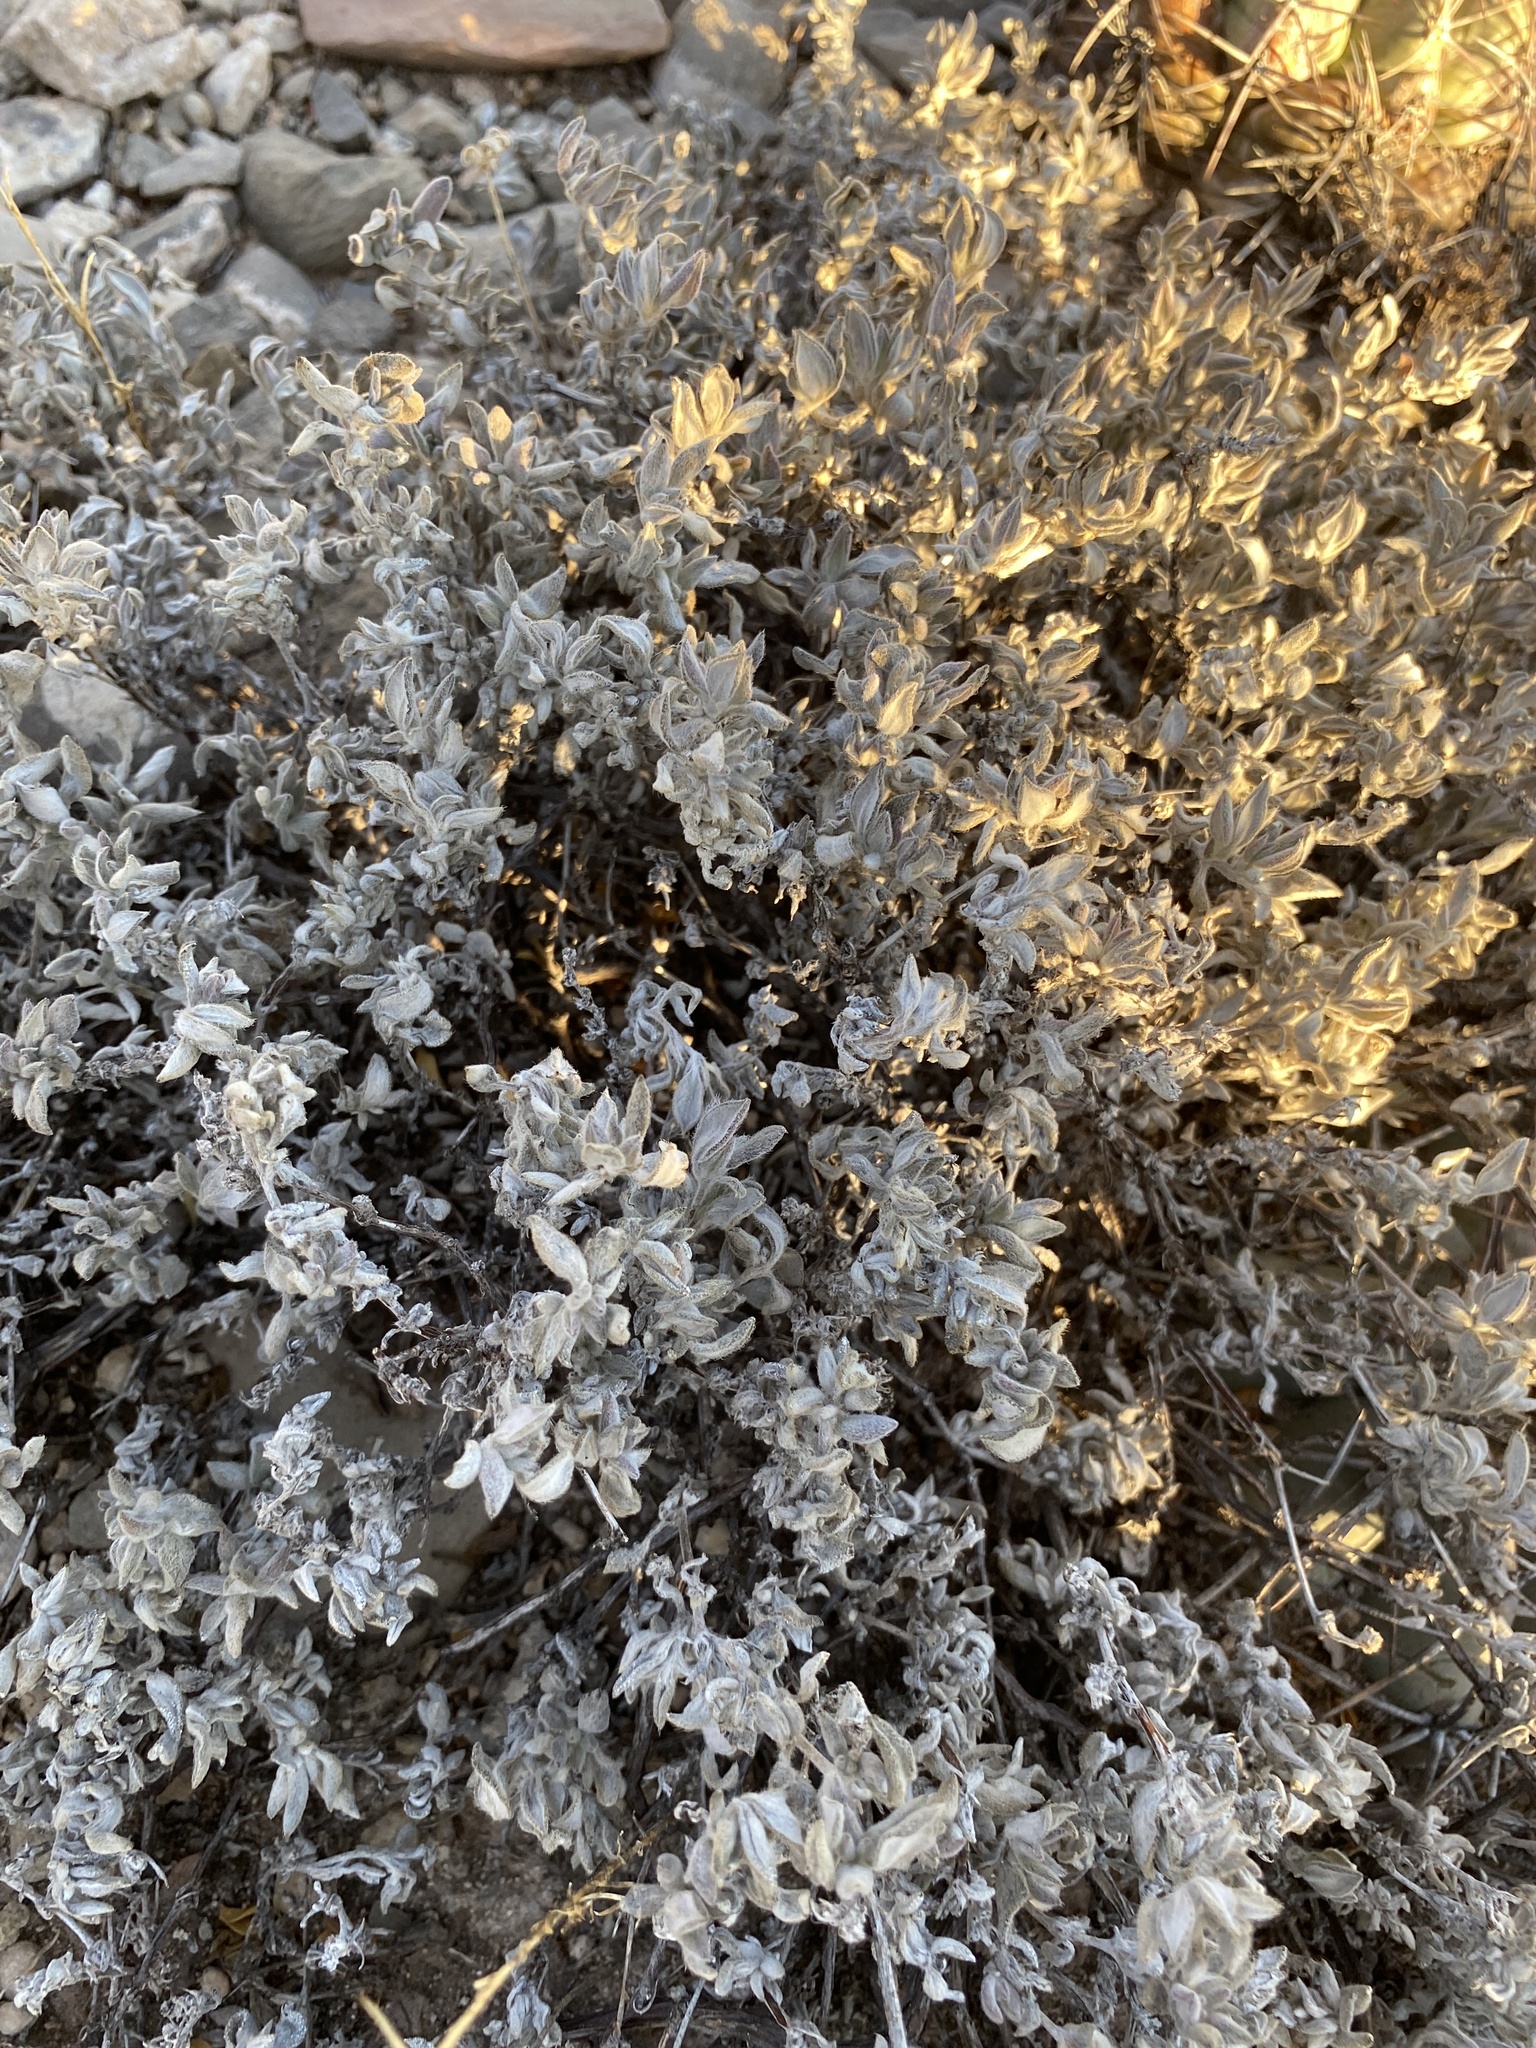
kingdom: Plantae
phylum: Tracheophyta
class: Magnoliopsida
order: Boraginales
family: Ehretiaceae
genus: Tiquilia
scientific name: Tiquilia canescens
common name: Hairy tiquilia
